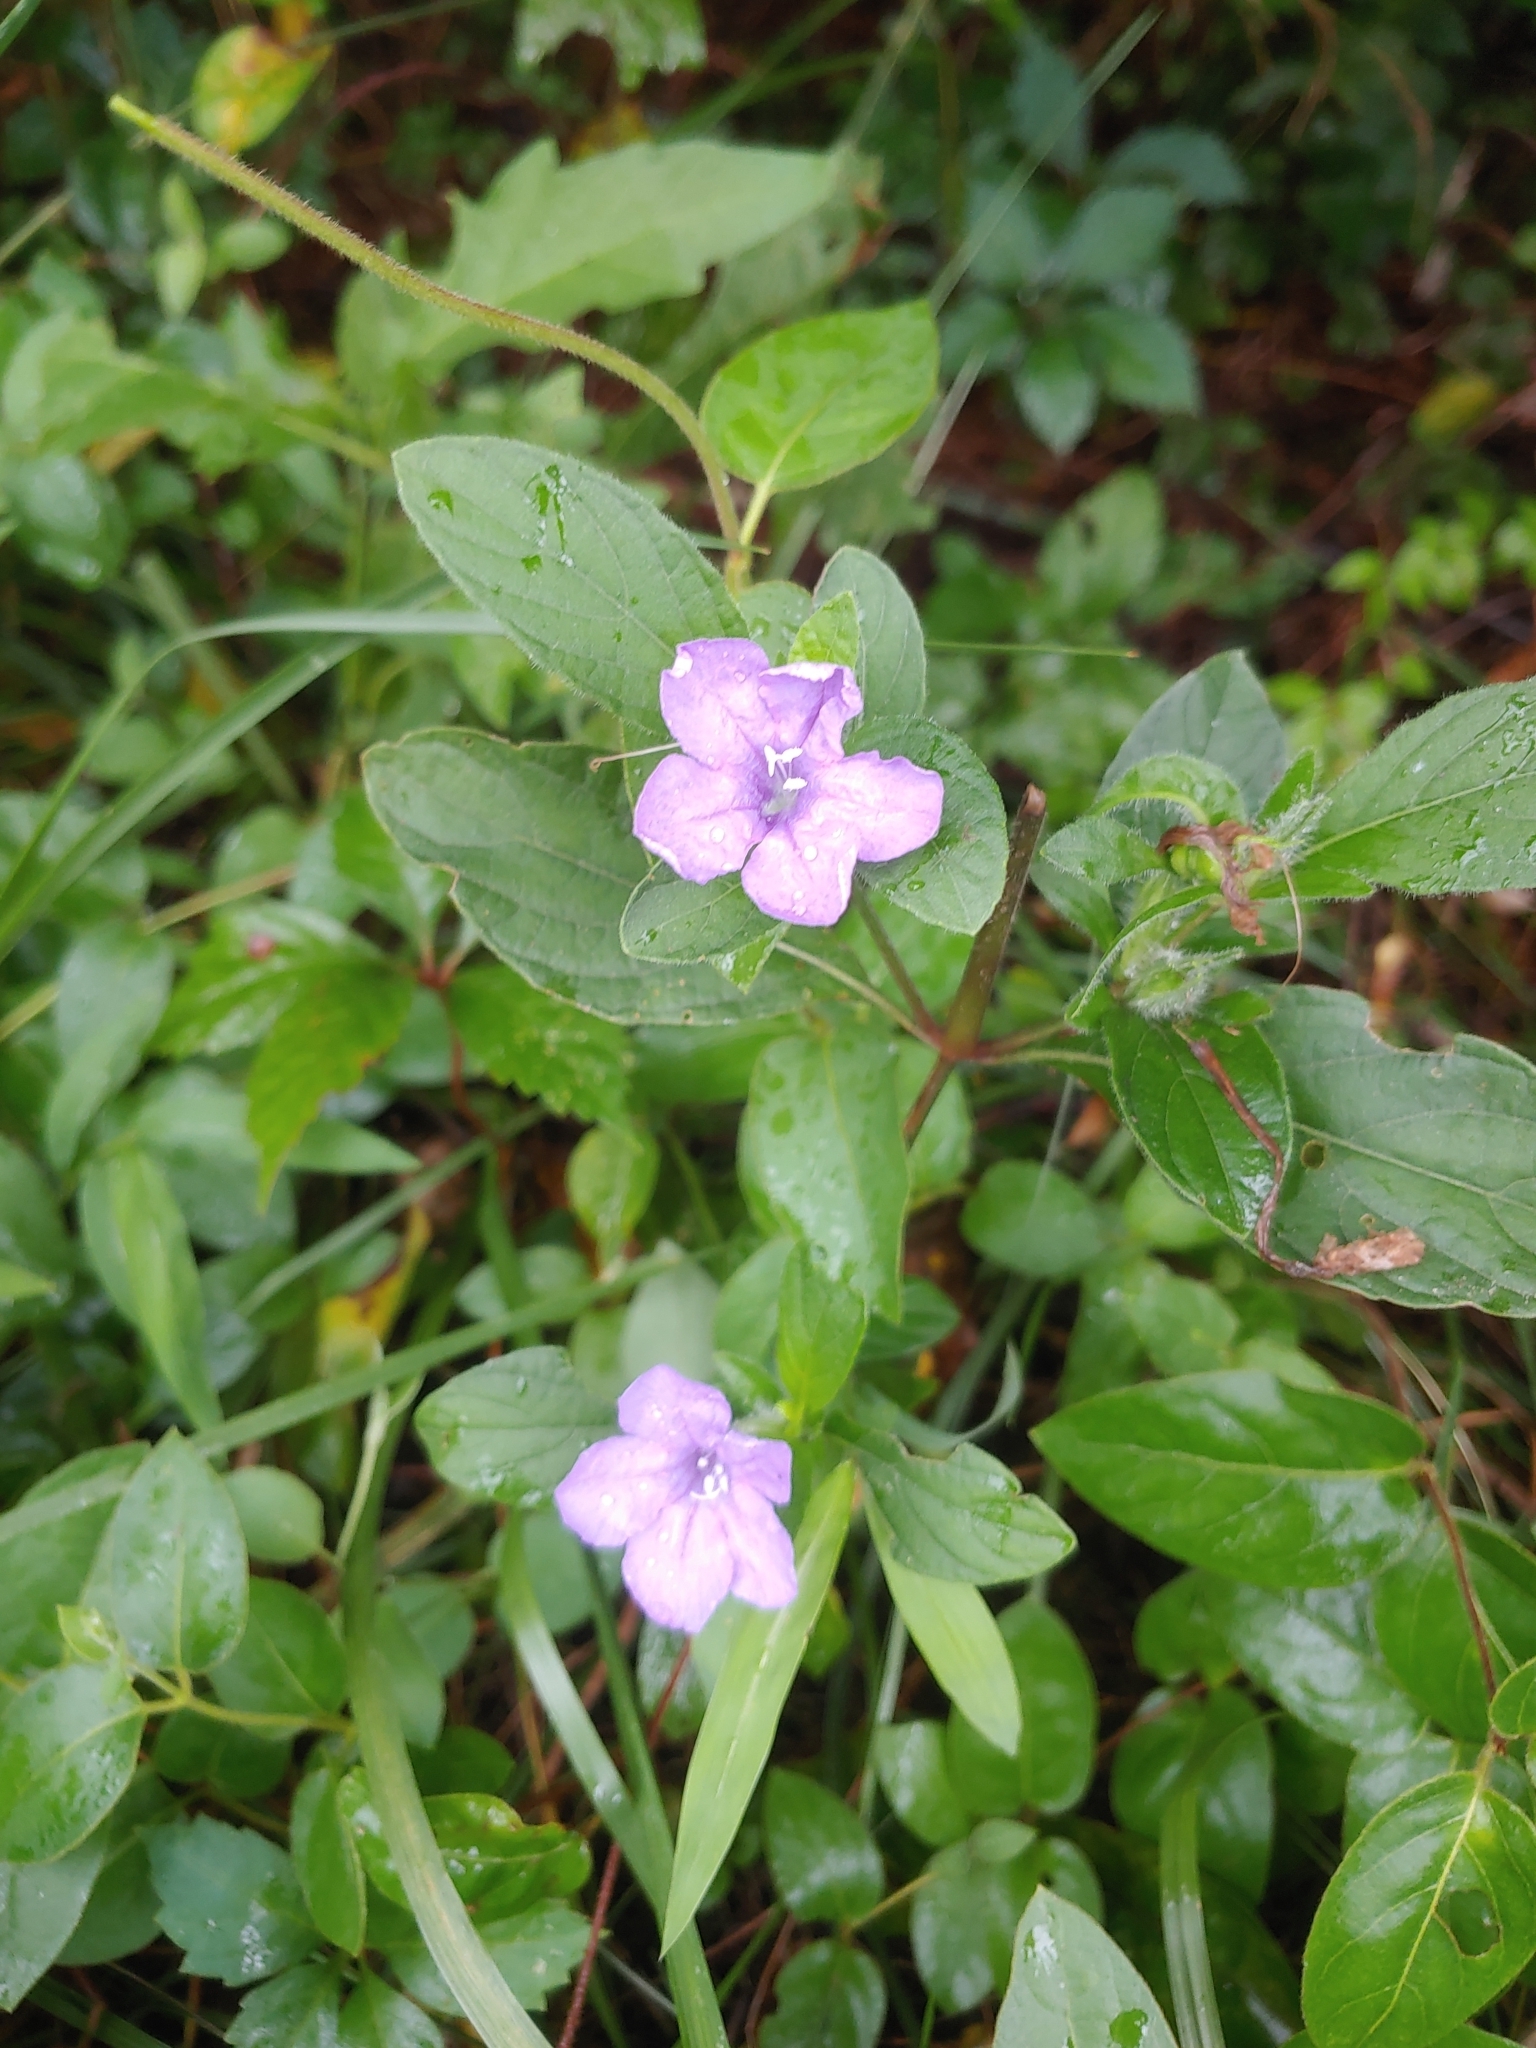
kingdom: Plantae
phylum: Tracheophyta
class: Magnoliopsida
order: Lamiales
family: Acanthaceae
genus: Ruellia
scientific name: Ruellia caroliniensis
